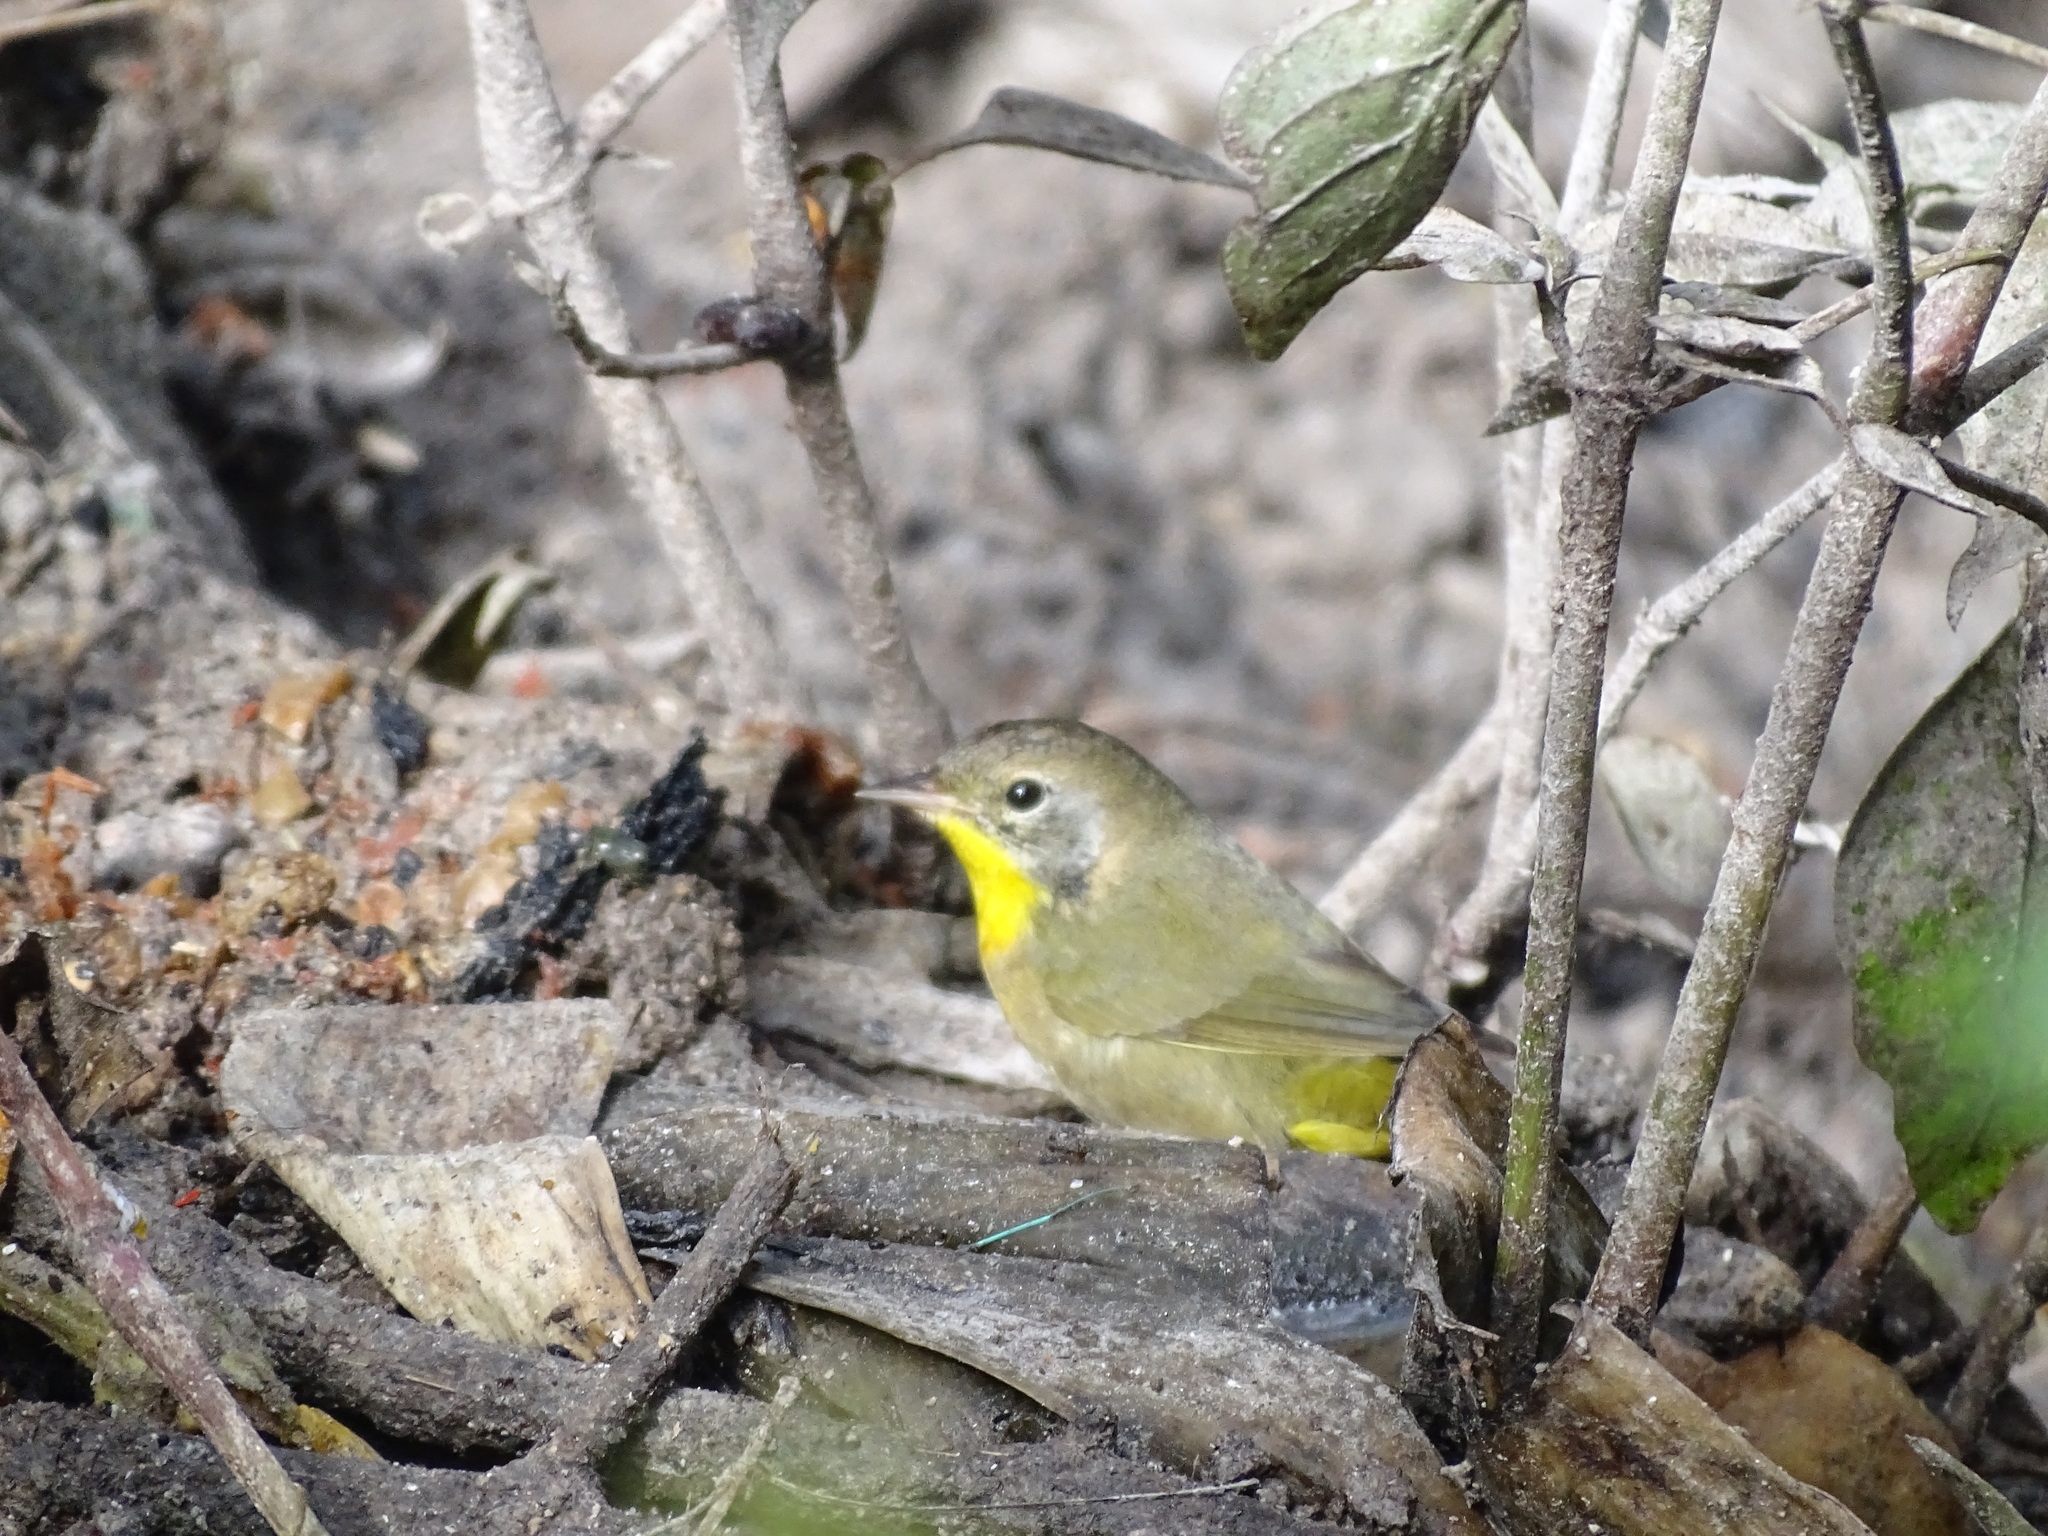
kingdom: Animalia
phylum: Chordata
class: Aves
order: Passeriformes
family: Parulidae
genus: Geothlypis
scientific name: Geothlypis trichas
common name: Common yellowthroat
